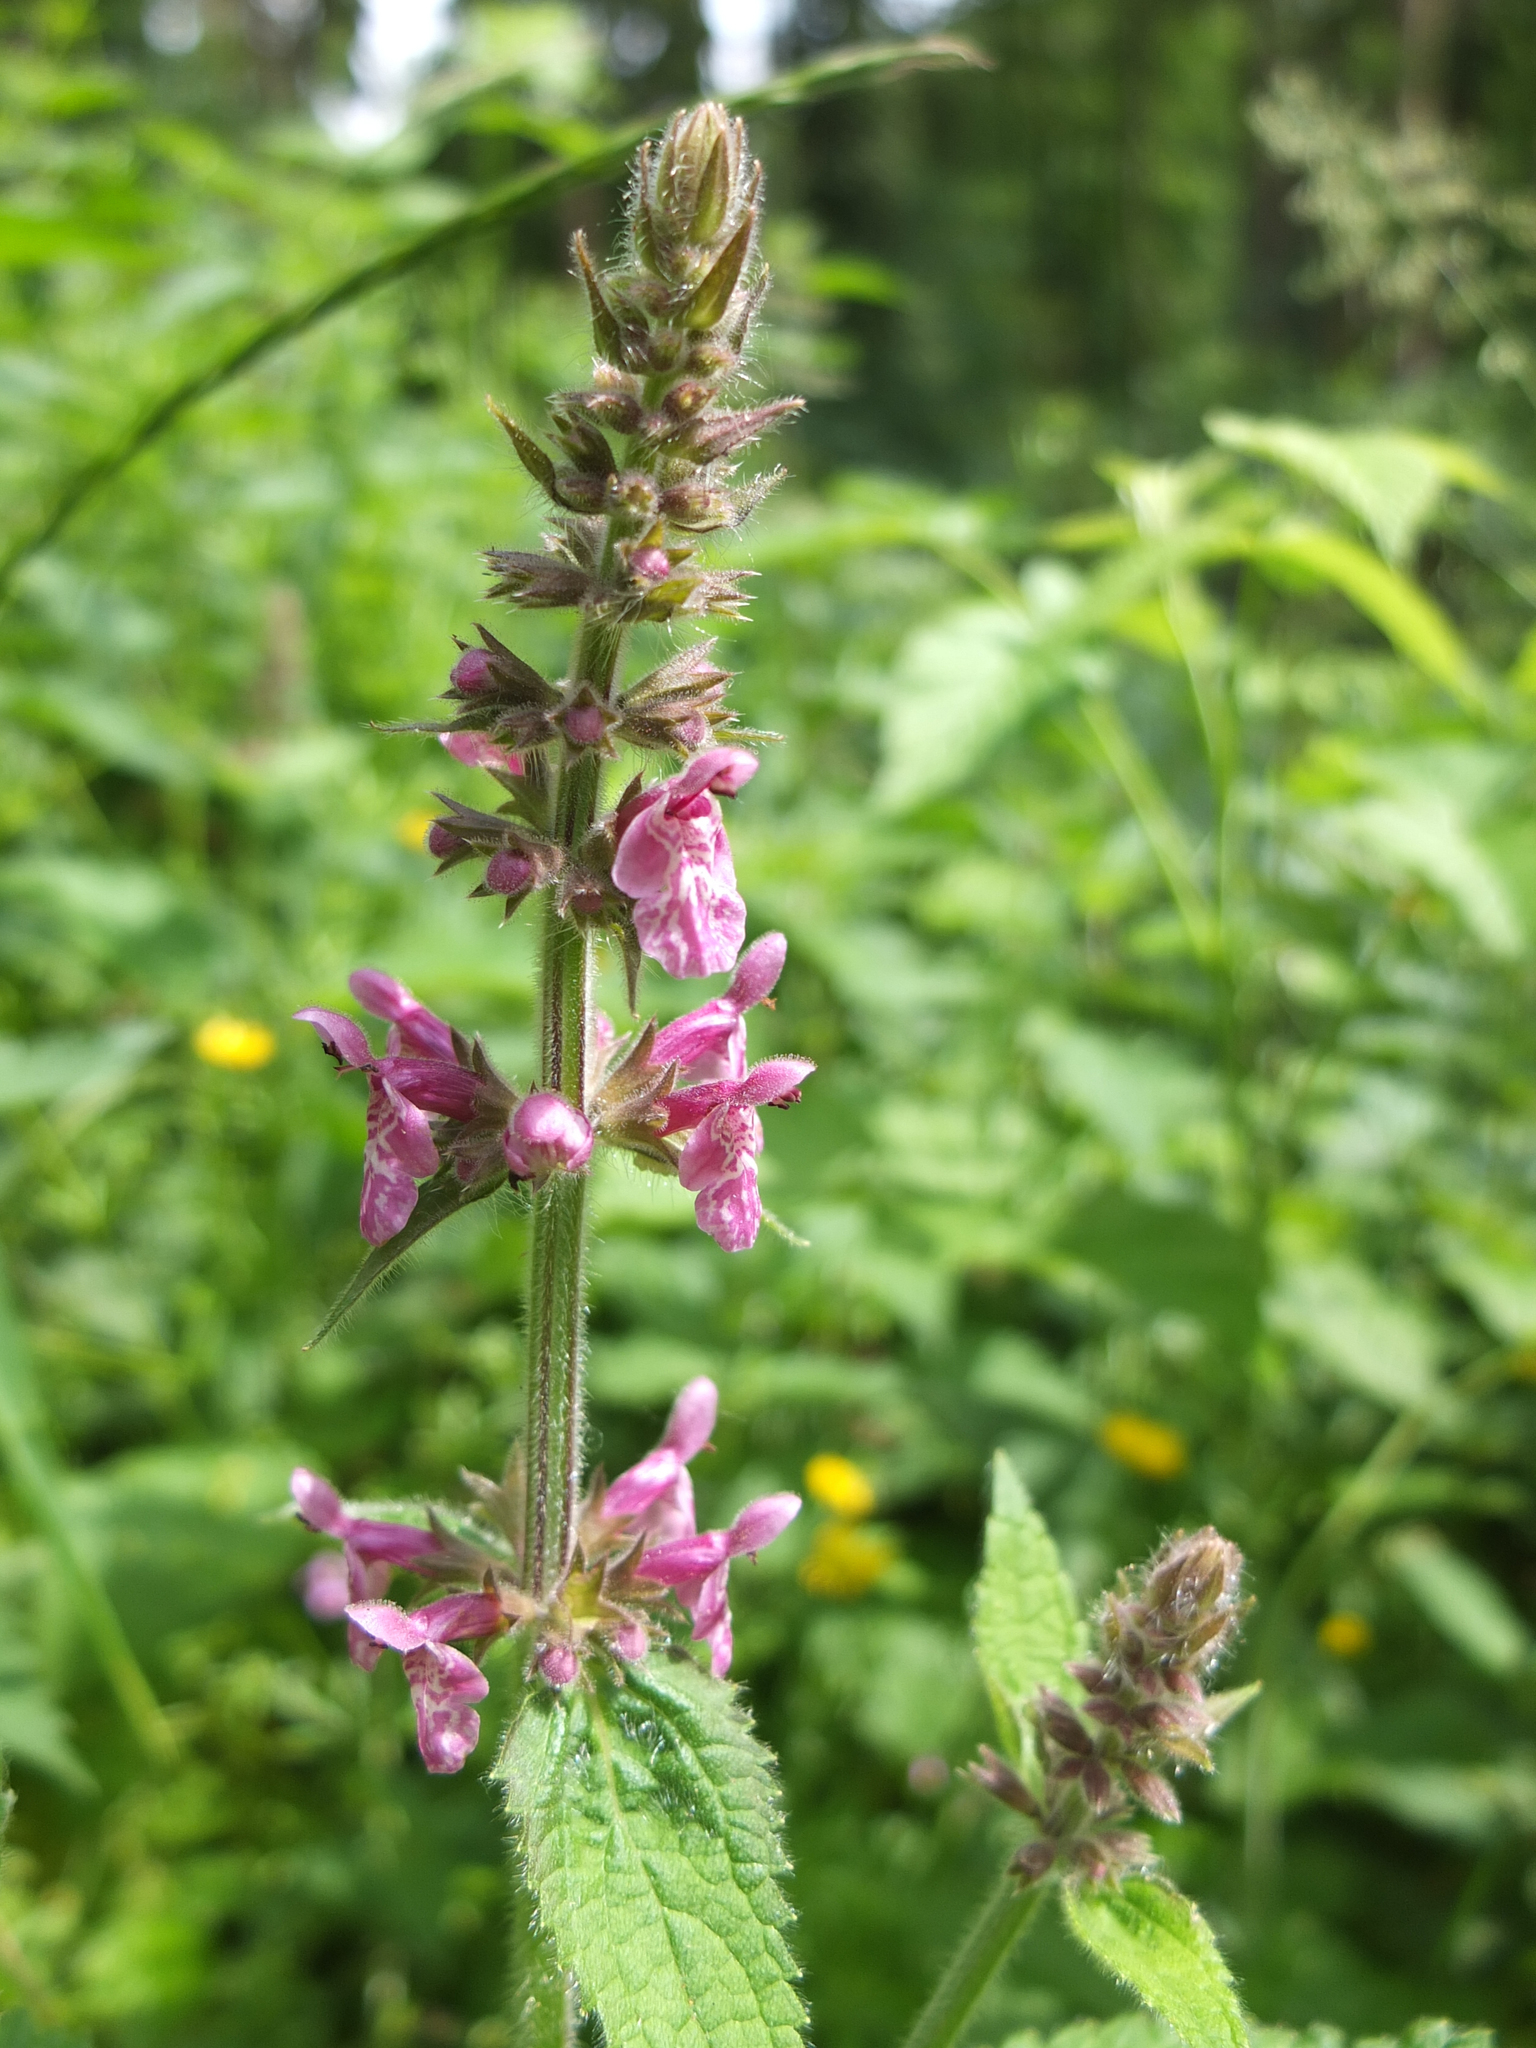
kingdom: Plantae
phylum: Tracheophyta
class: Magnoliopsida
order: Lamiales
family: Lamiaceae
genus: Stachys
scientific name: Stachys sylvatica
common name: Hedge woundwort
